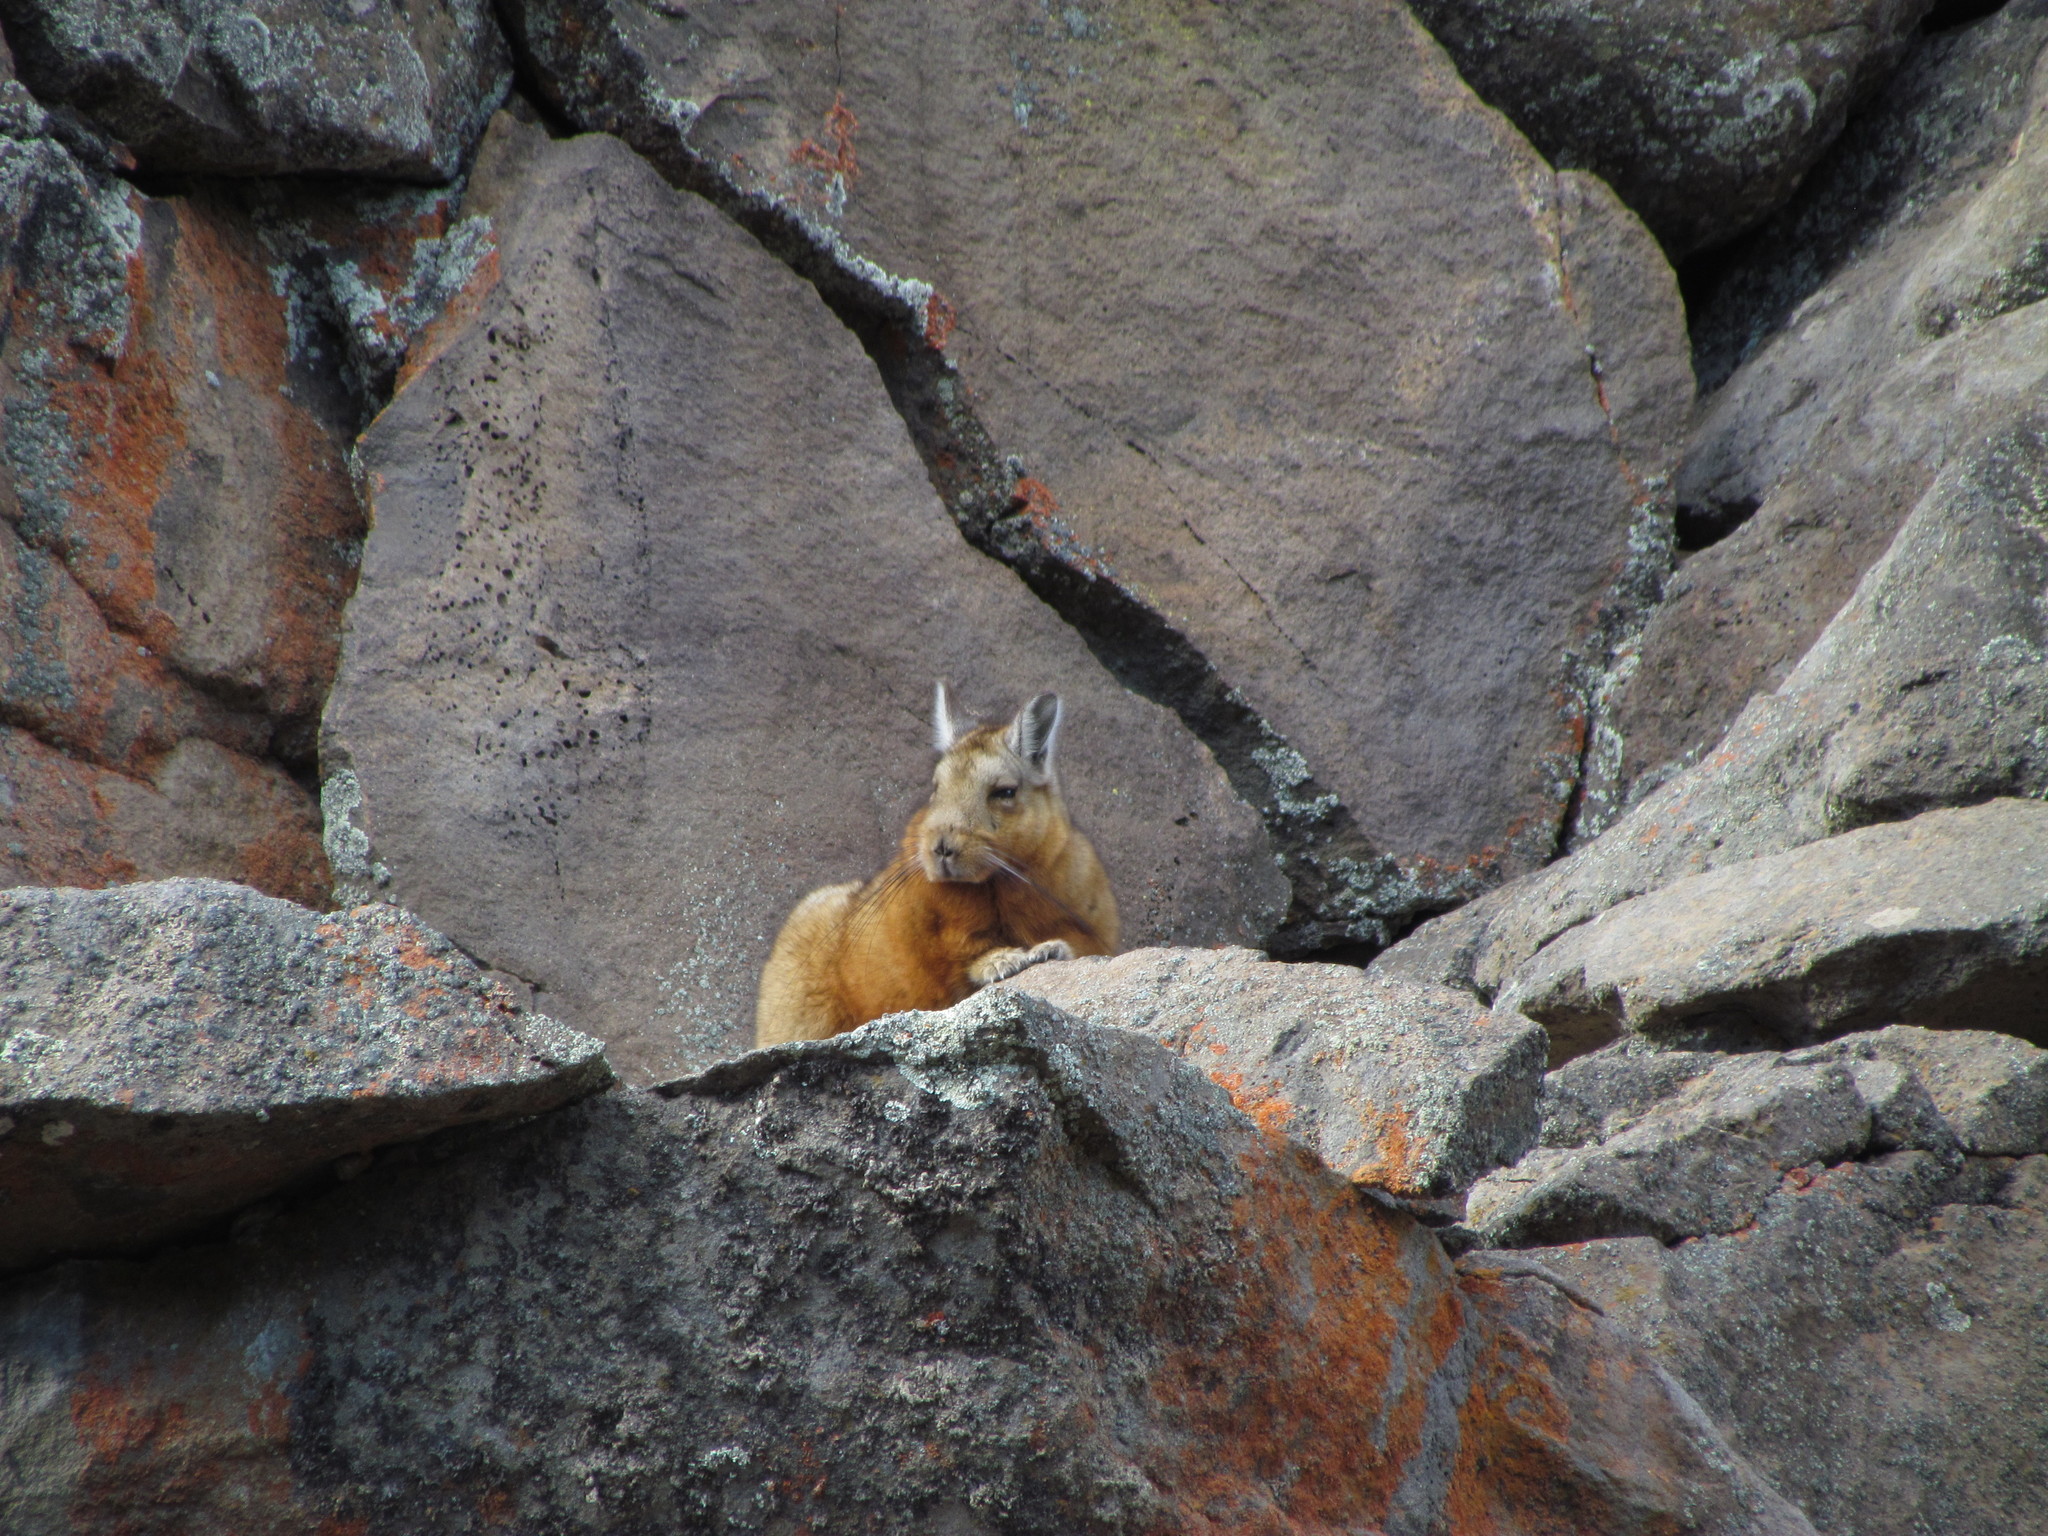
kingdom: Animalia
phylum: Chordata
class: Mammalia
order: Rodentia
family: Chinchillidae
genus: Lagidium
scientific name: Lagidium wolffsohni
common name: Wolffsohn's viscacha
